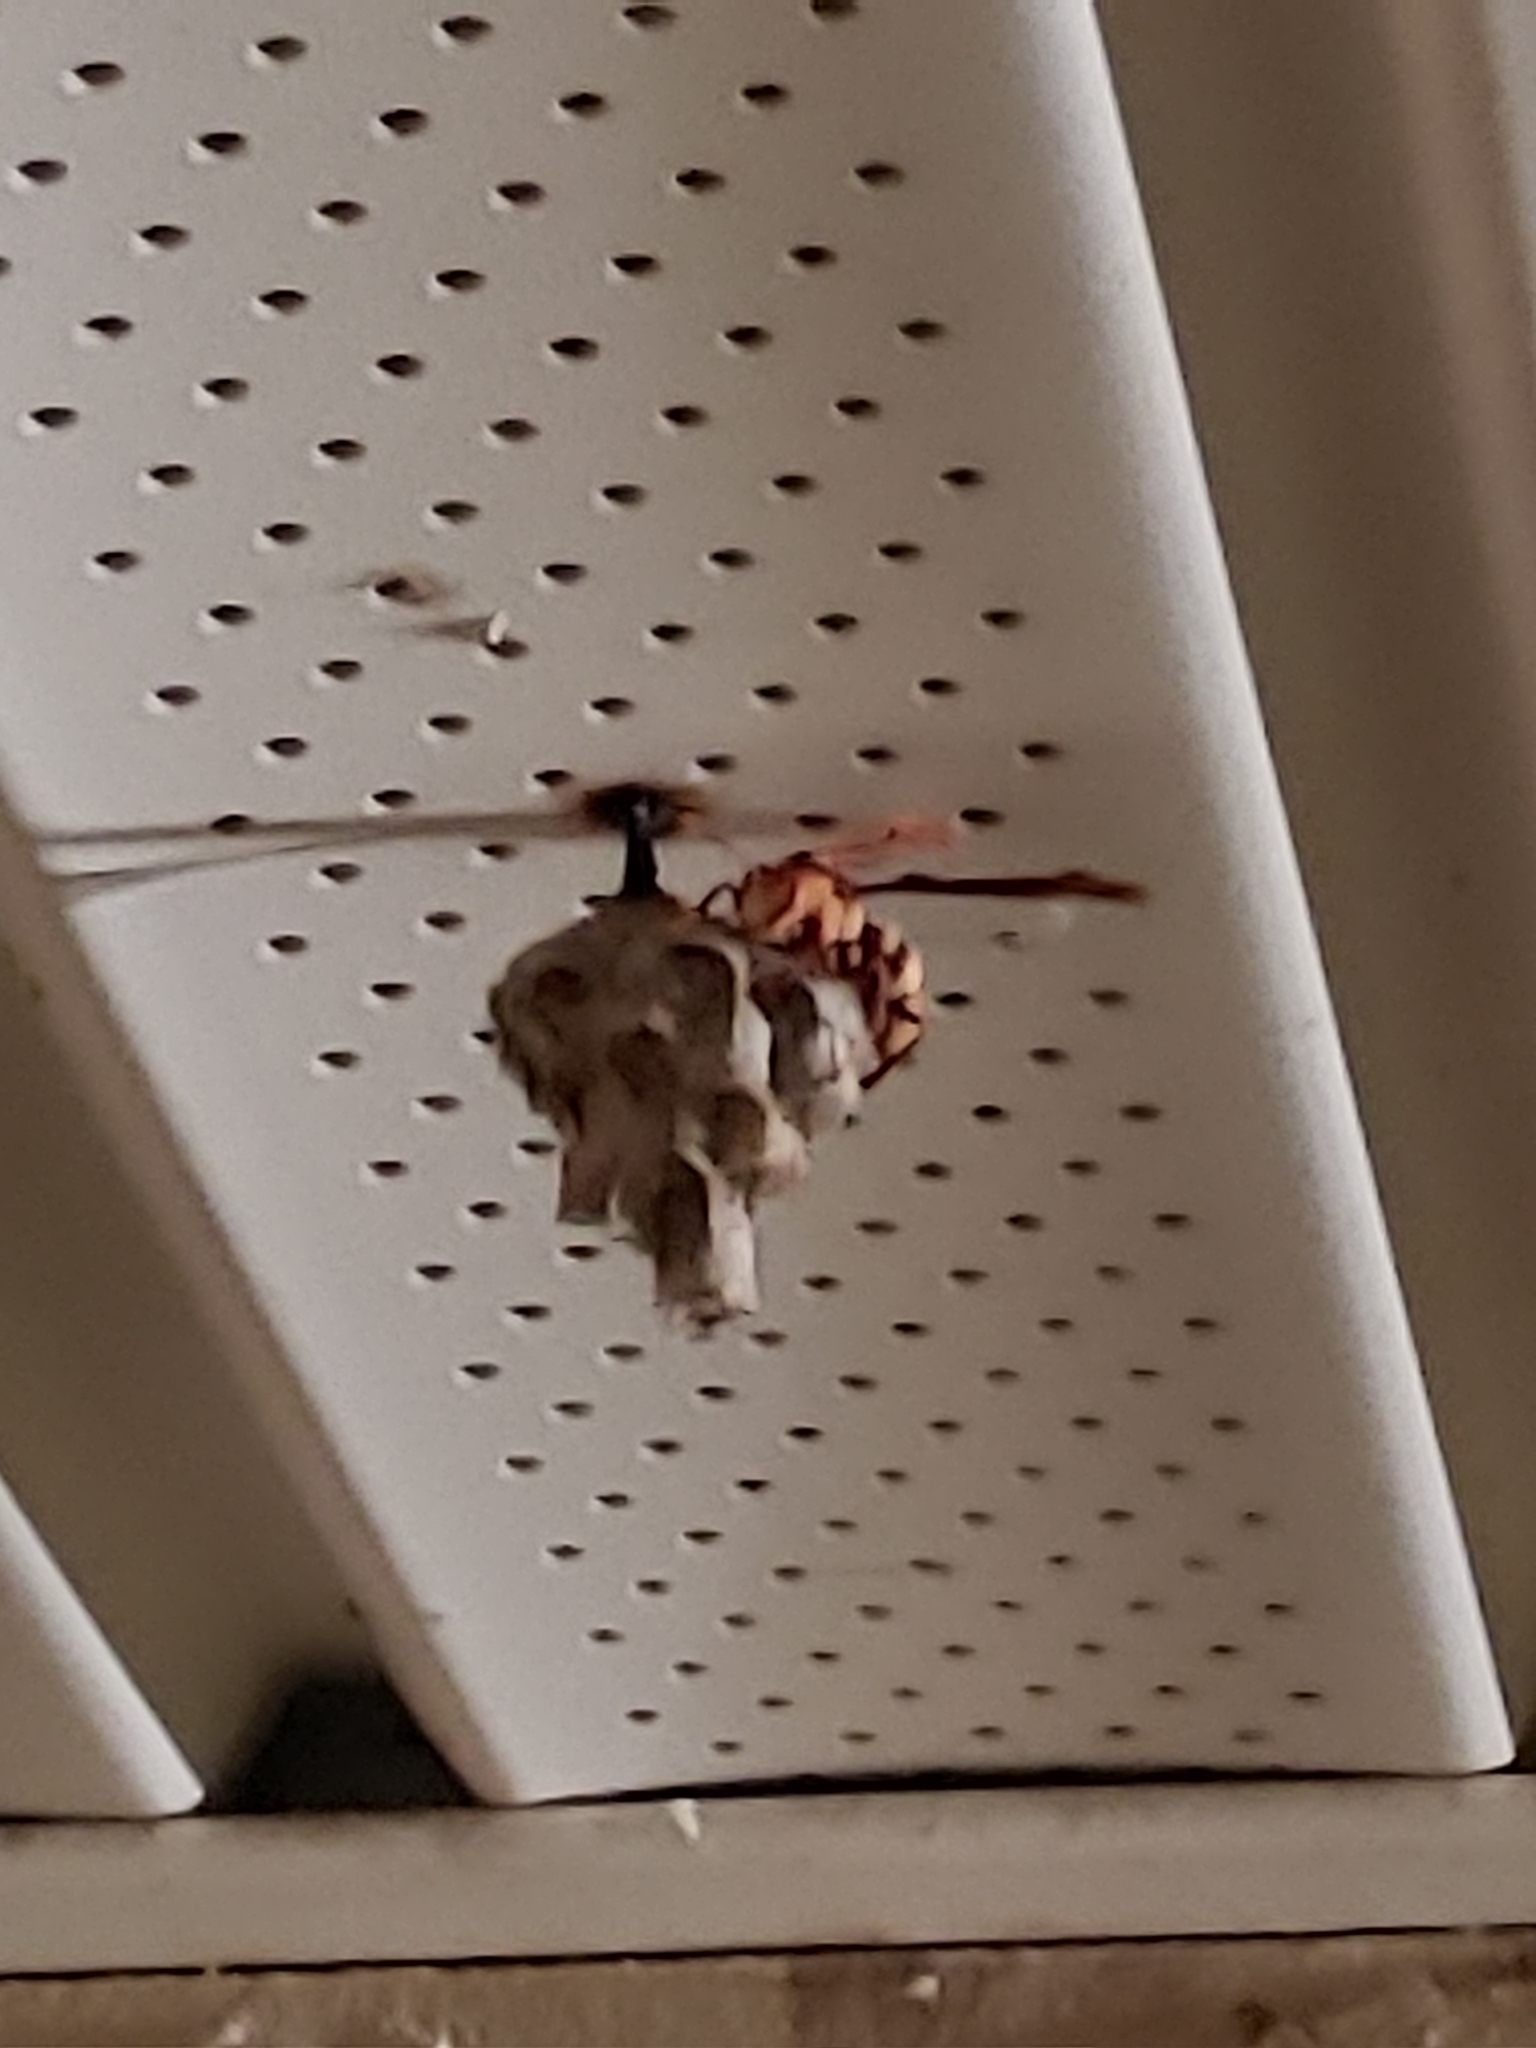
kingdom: Animalia
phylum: Arthropoda
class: Insecta
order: Hymenoptera
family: Eumenidae
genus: Polistes
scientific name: Polistes major
